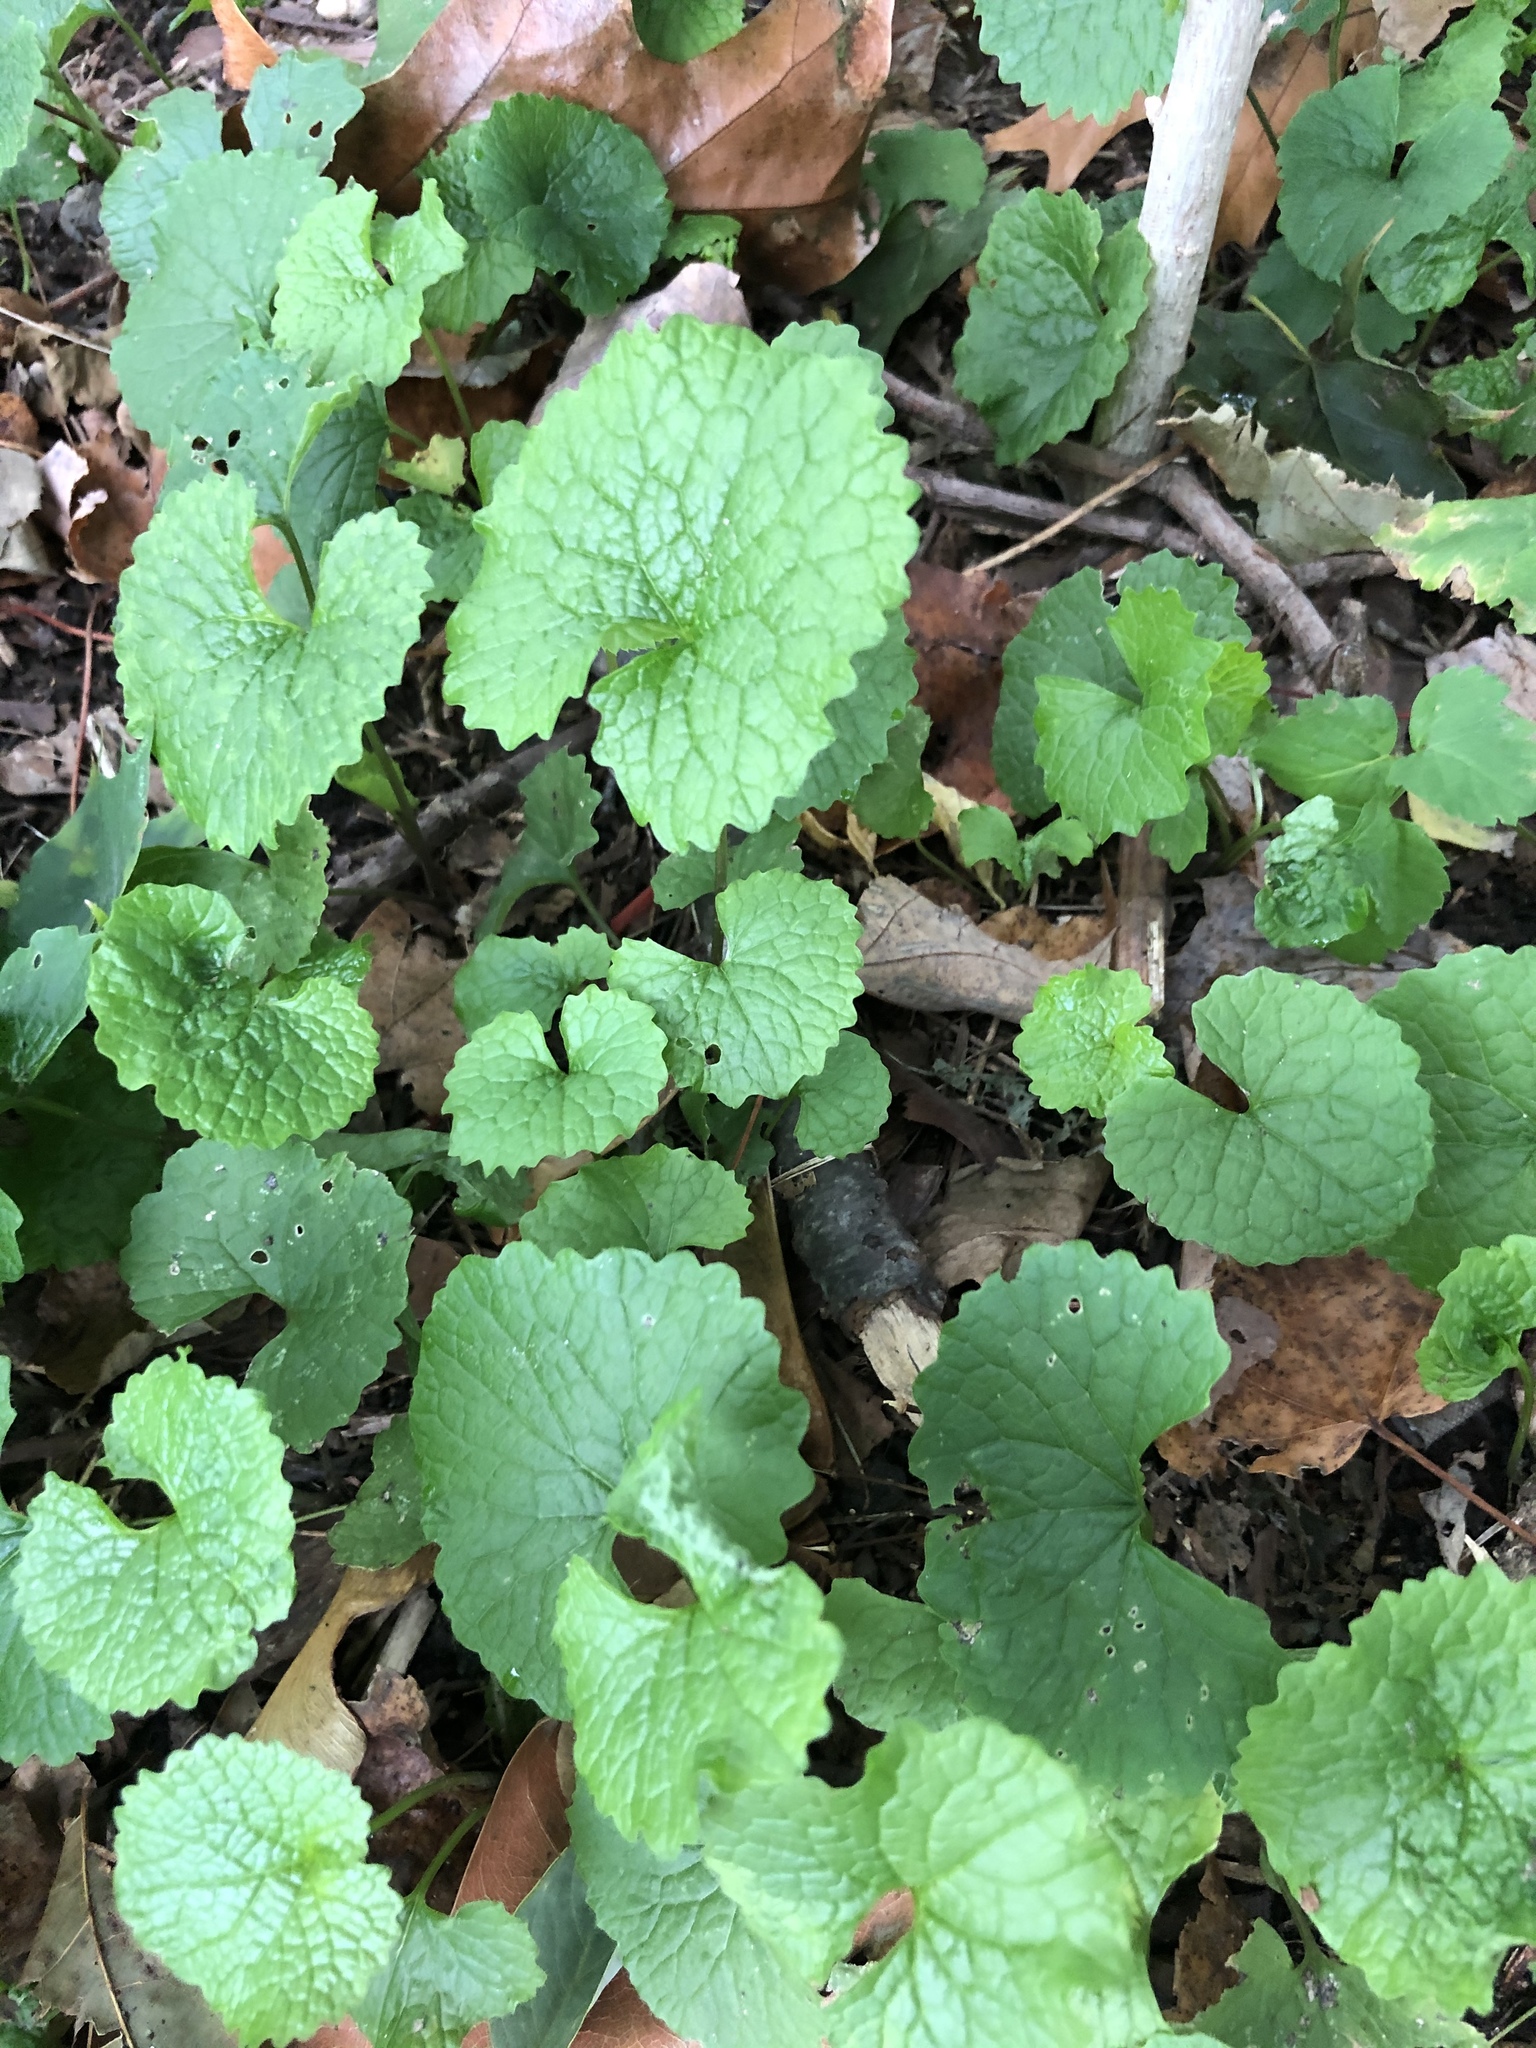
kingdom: Plantae
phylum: Tracheophyta
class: Magnoliopsida
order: Brassicales
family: Brassicaceae
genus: Alliaria
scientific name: Alliaria petiolata
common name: Garlic mustard
